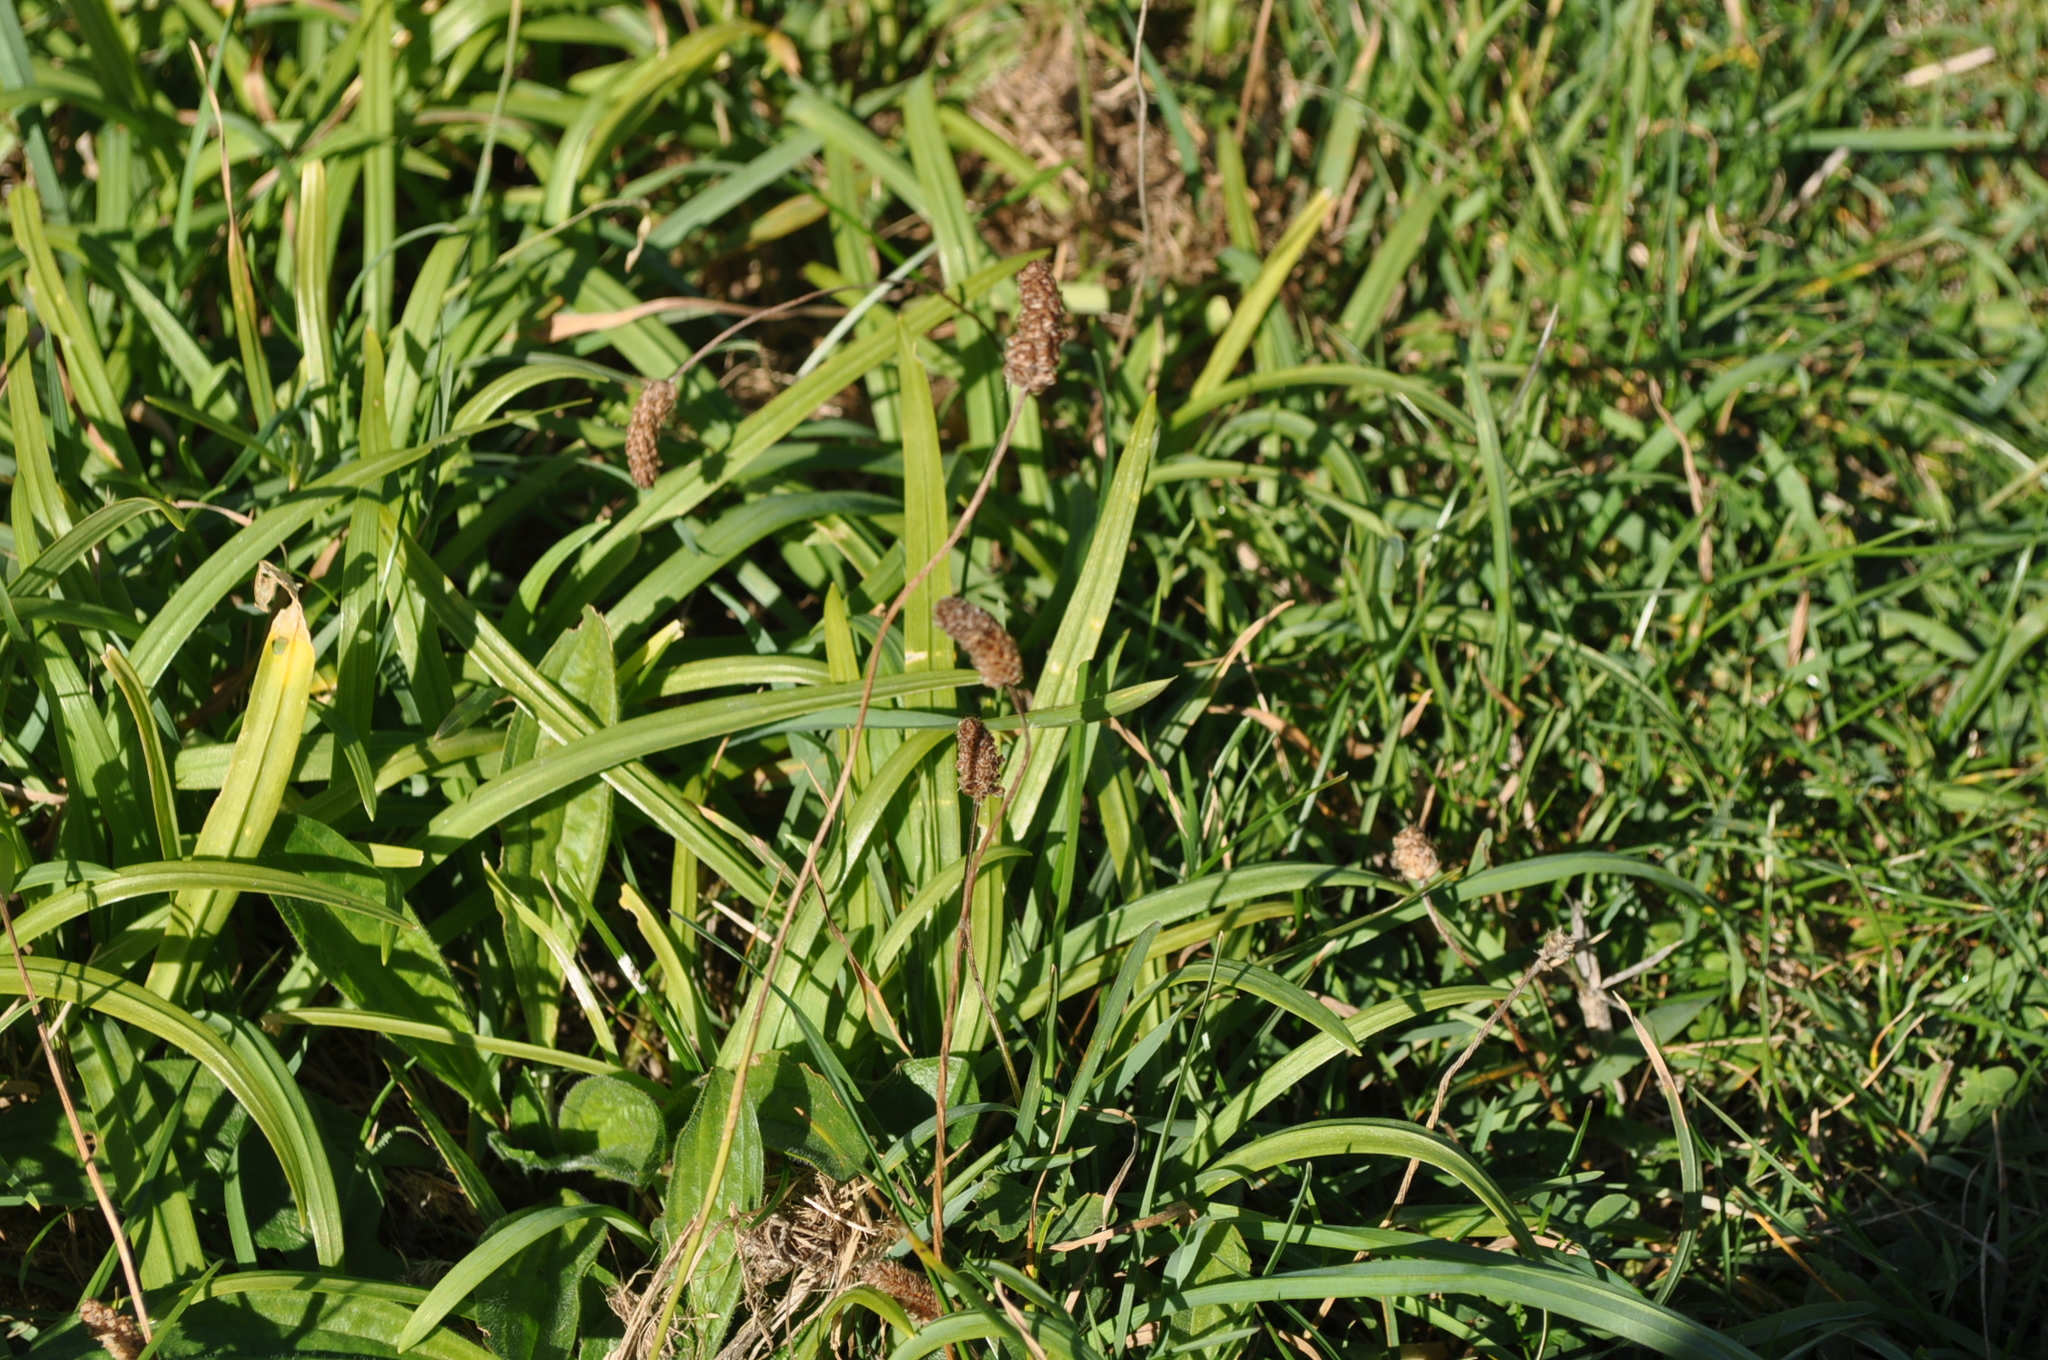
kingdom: Plantae
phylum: Tracheophyta
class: Magnoliopsida
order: Lamiales
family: Plantaginaceae
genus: Plantago
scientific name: Plantago lanceolata
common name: Ribwort plantain
